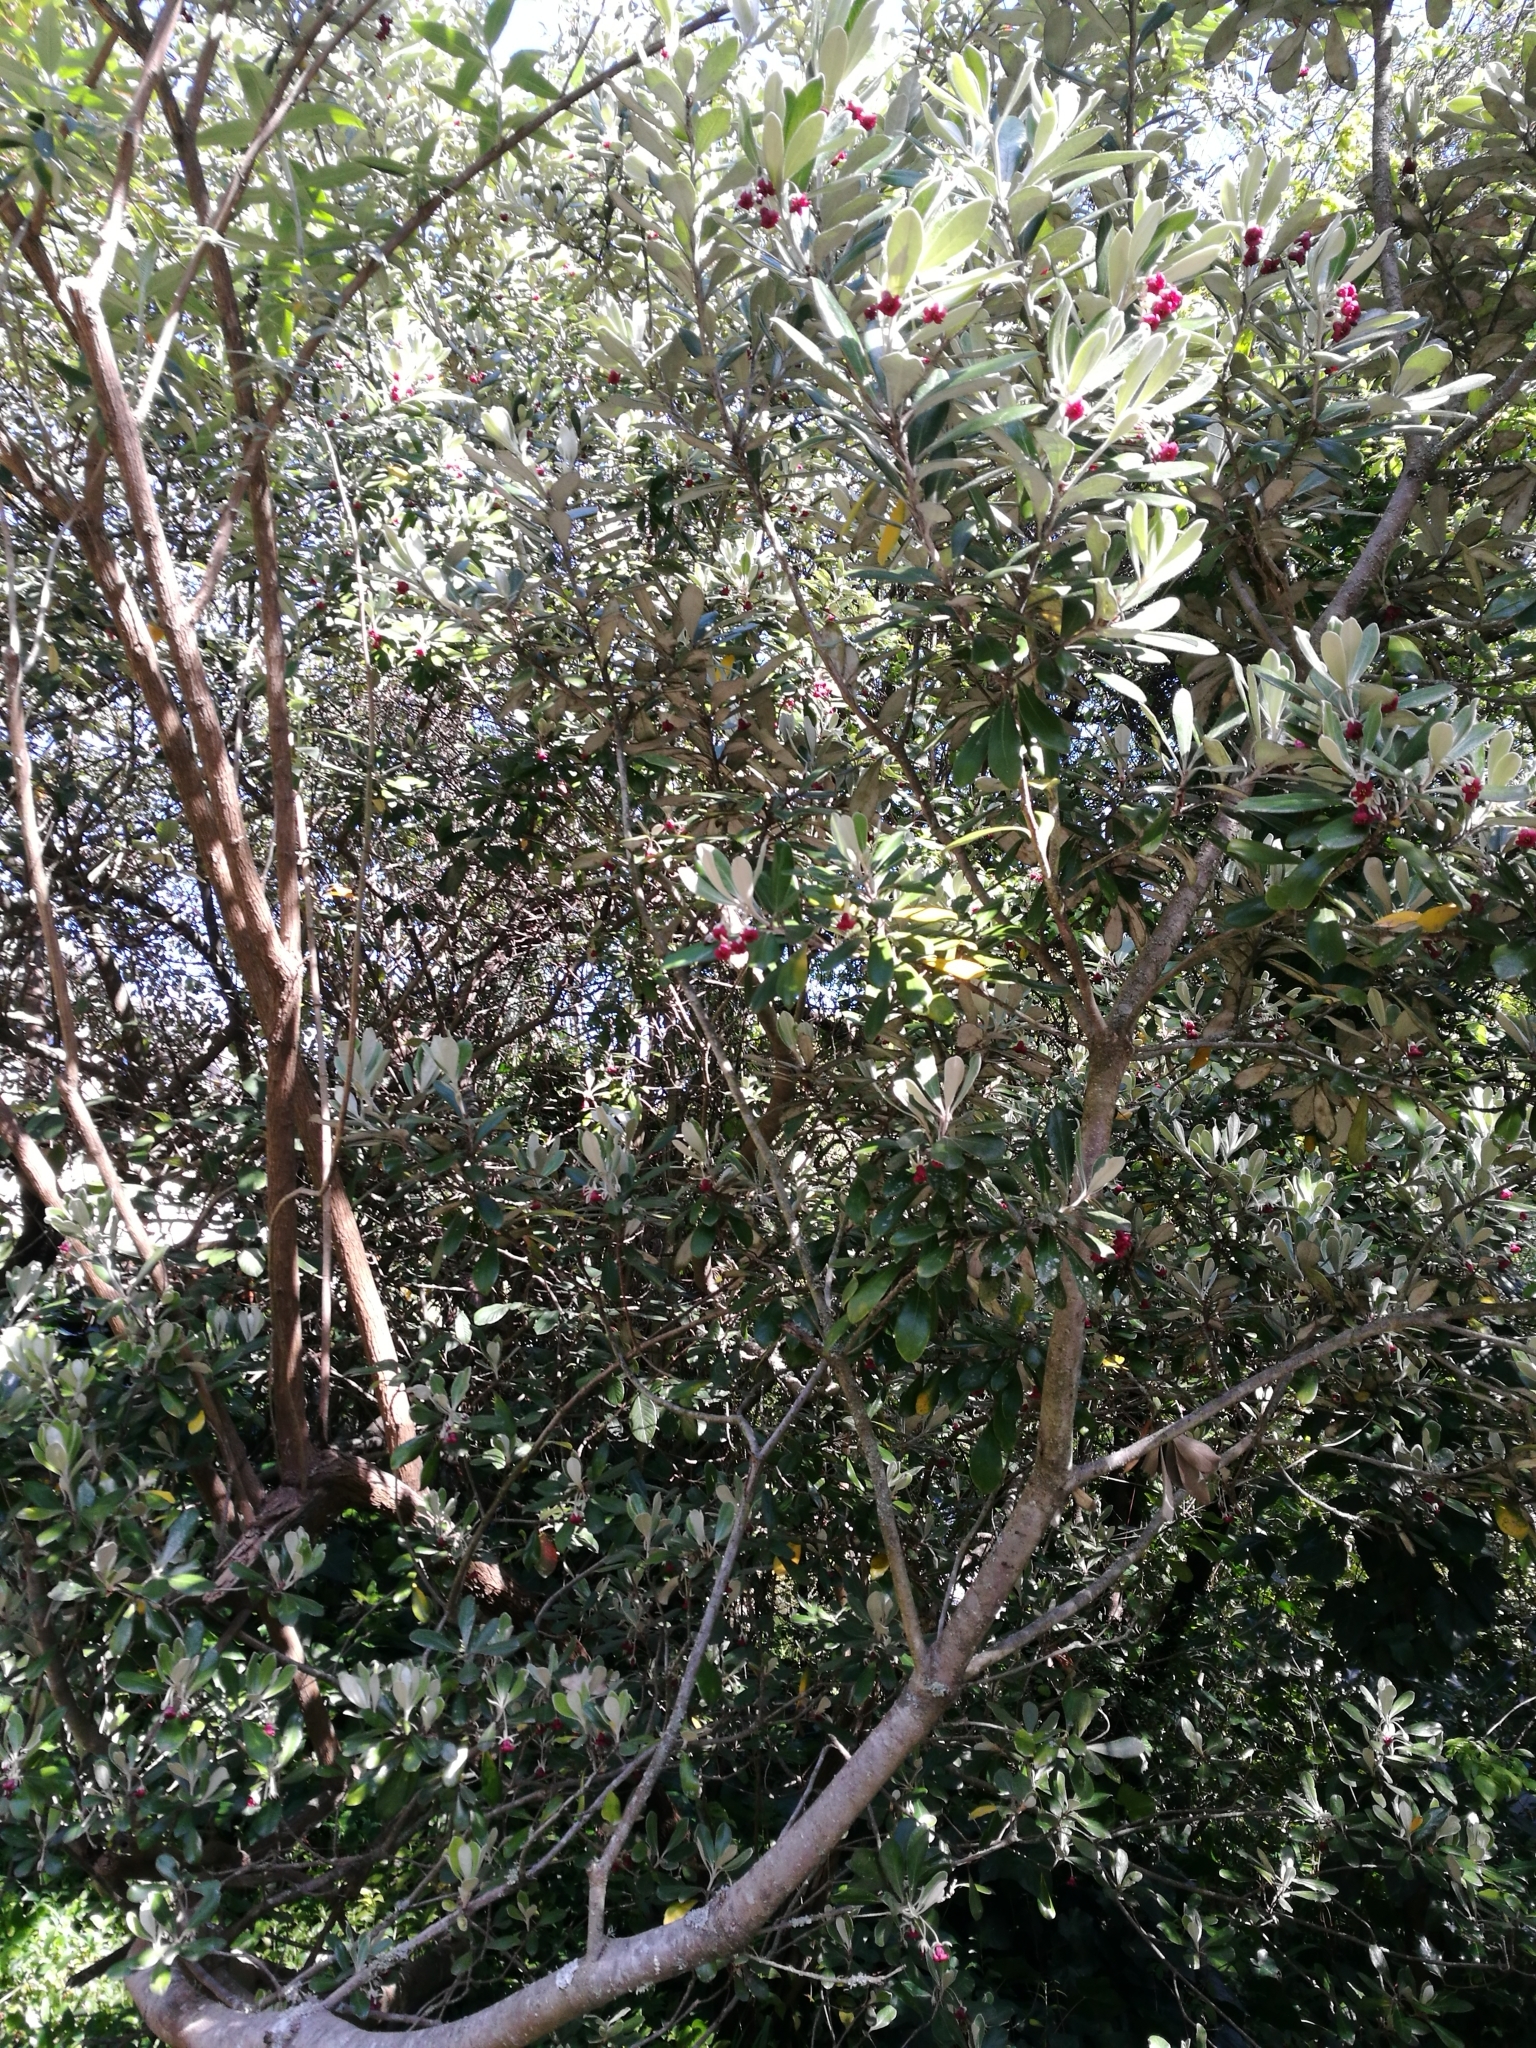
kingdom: Plantae
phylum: Tracheophyta
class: Magnoliopsida
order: Apiales
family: Pittosporaceae
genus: Pittosporum
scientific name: Pittosporum crassifolium
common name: Karo
